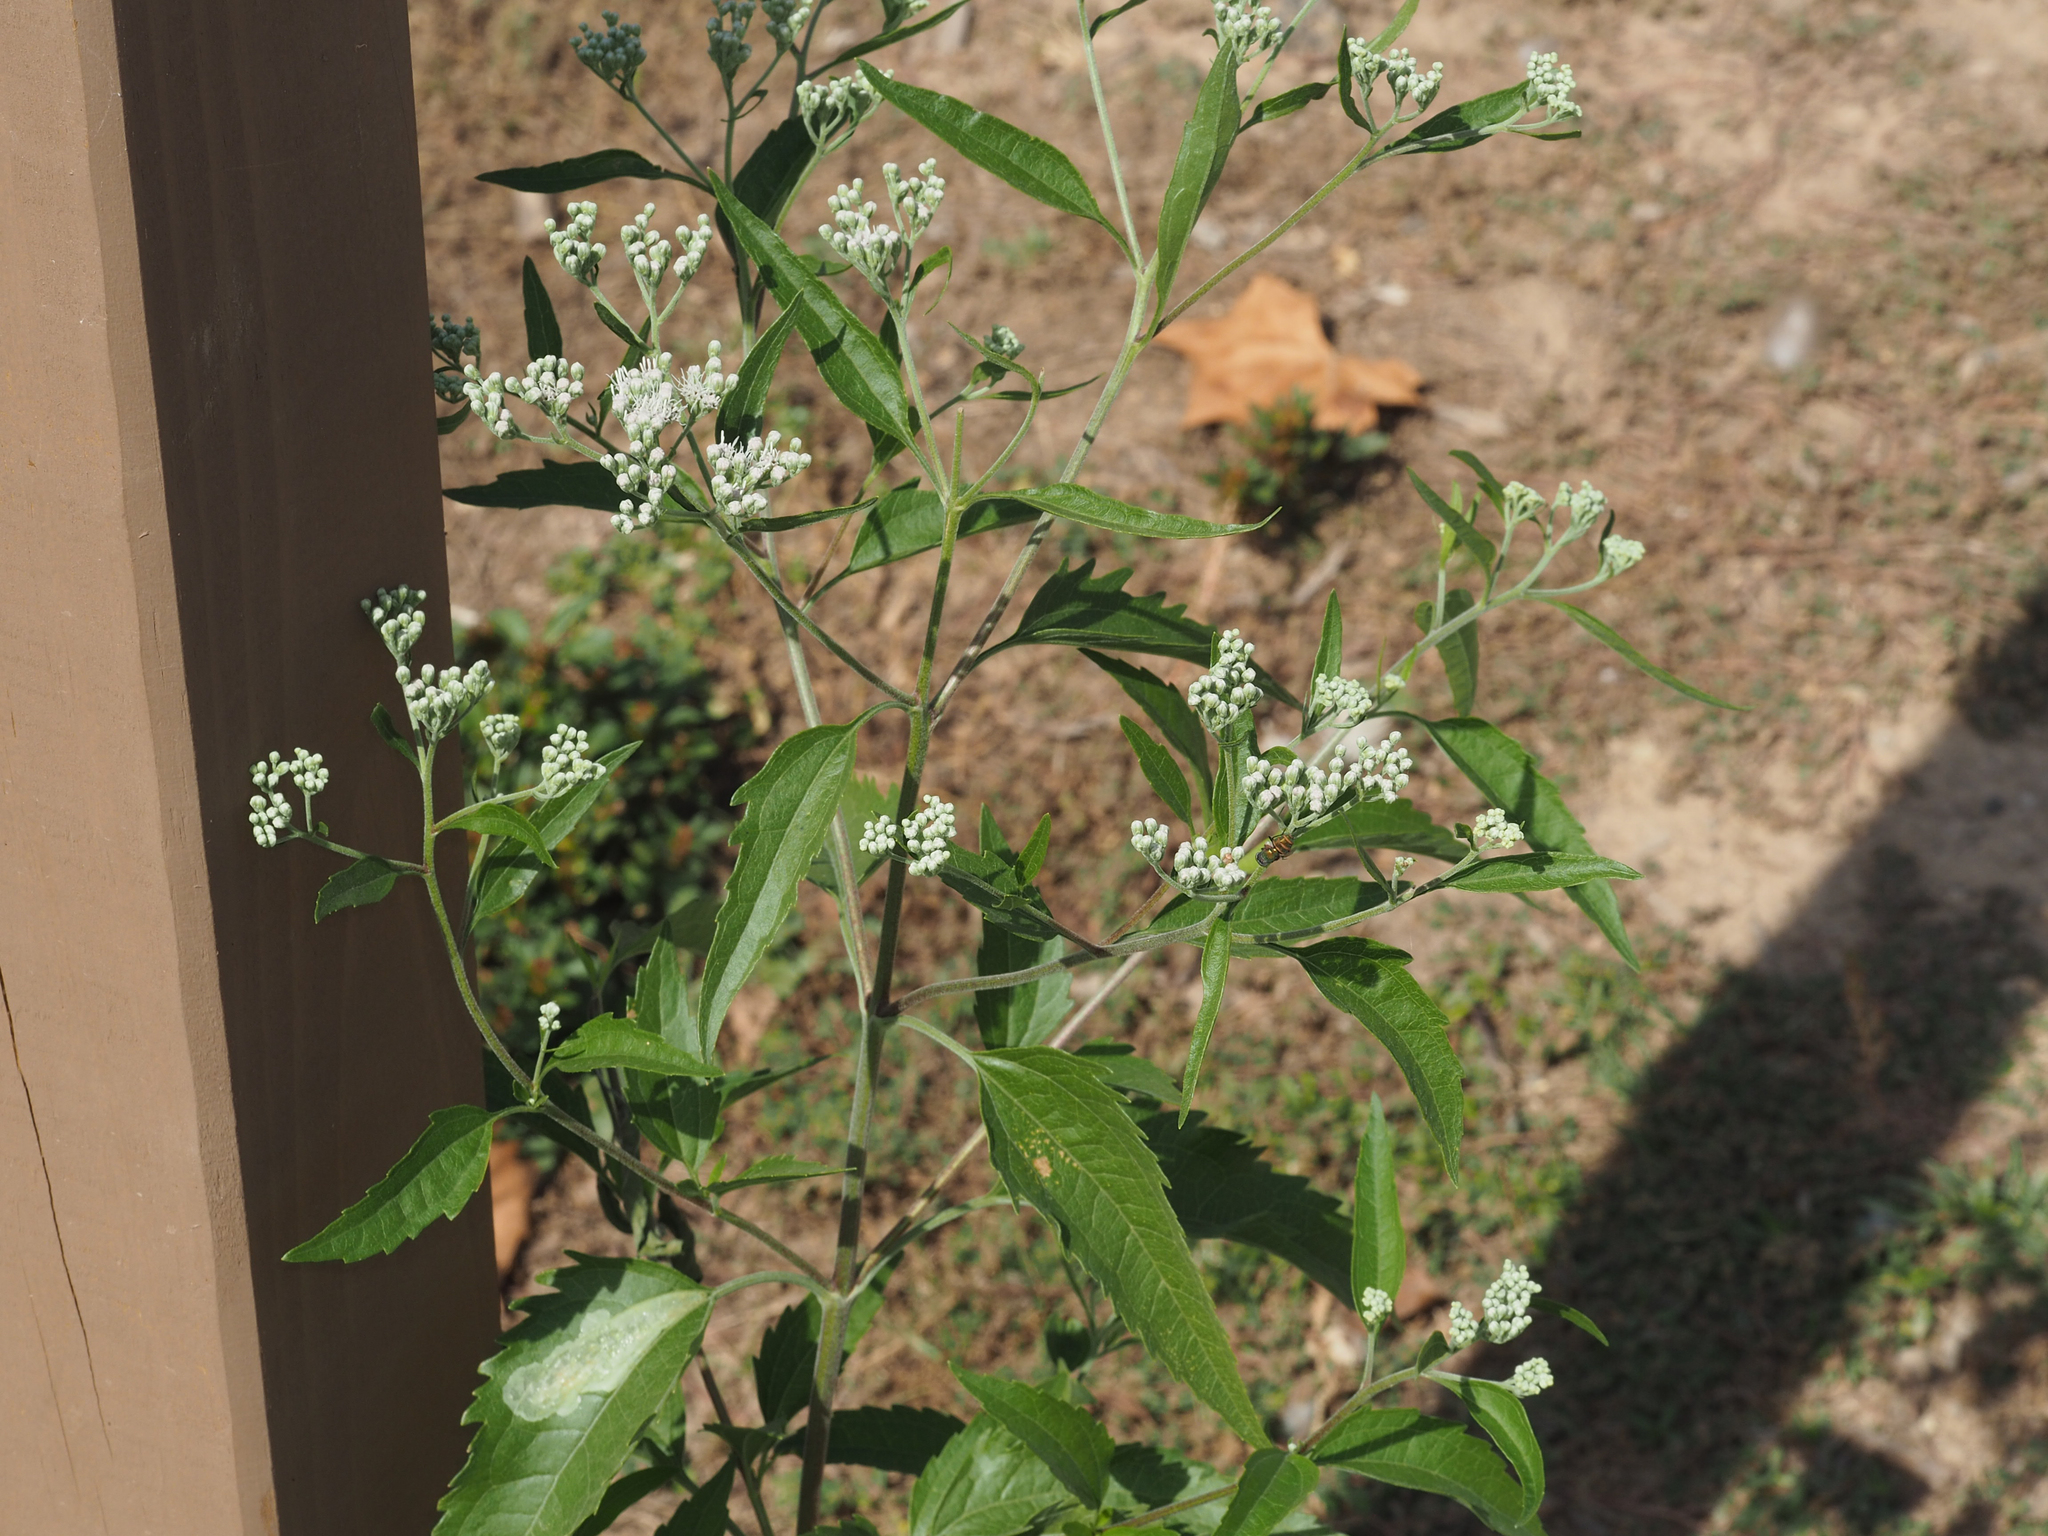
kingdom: Plantae
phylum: Tracheophyta
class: Magnoliopsida
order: Asterales
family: Asteraceae
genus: Eupatorium
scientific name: Eupatorium serotinum
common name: Late boneset
